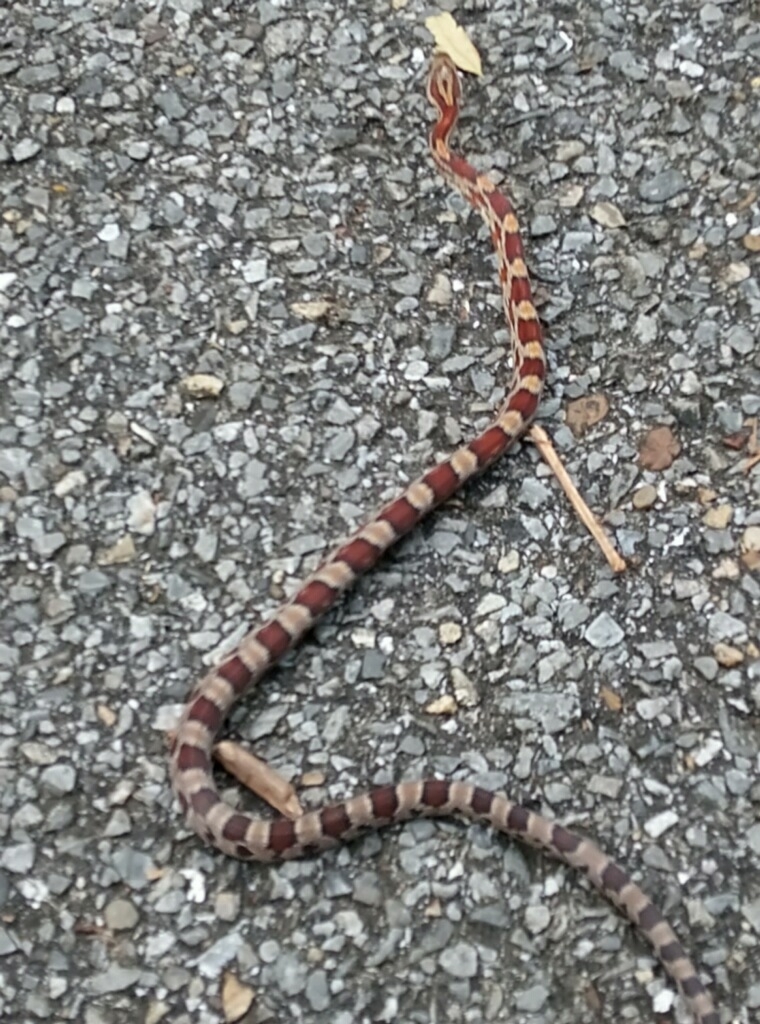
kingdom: Animalia
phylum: Chordata
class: Squamata
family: Colubridae
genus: Pantherophis
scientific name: Pantherophis guttatus
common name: Red cornsnake
